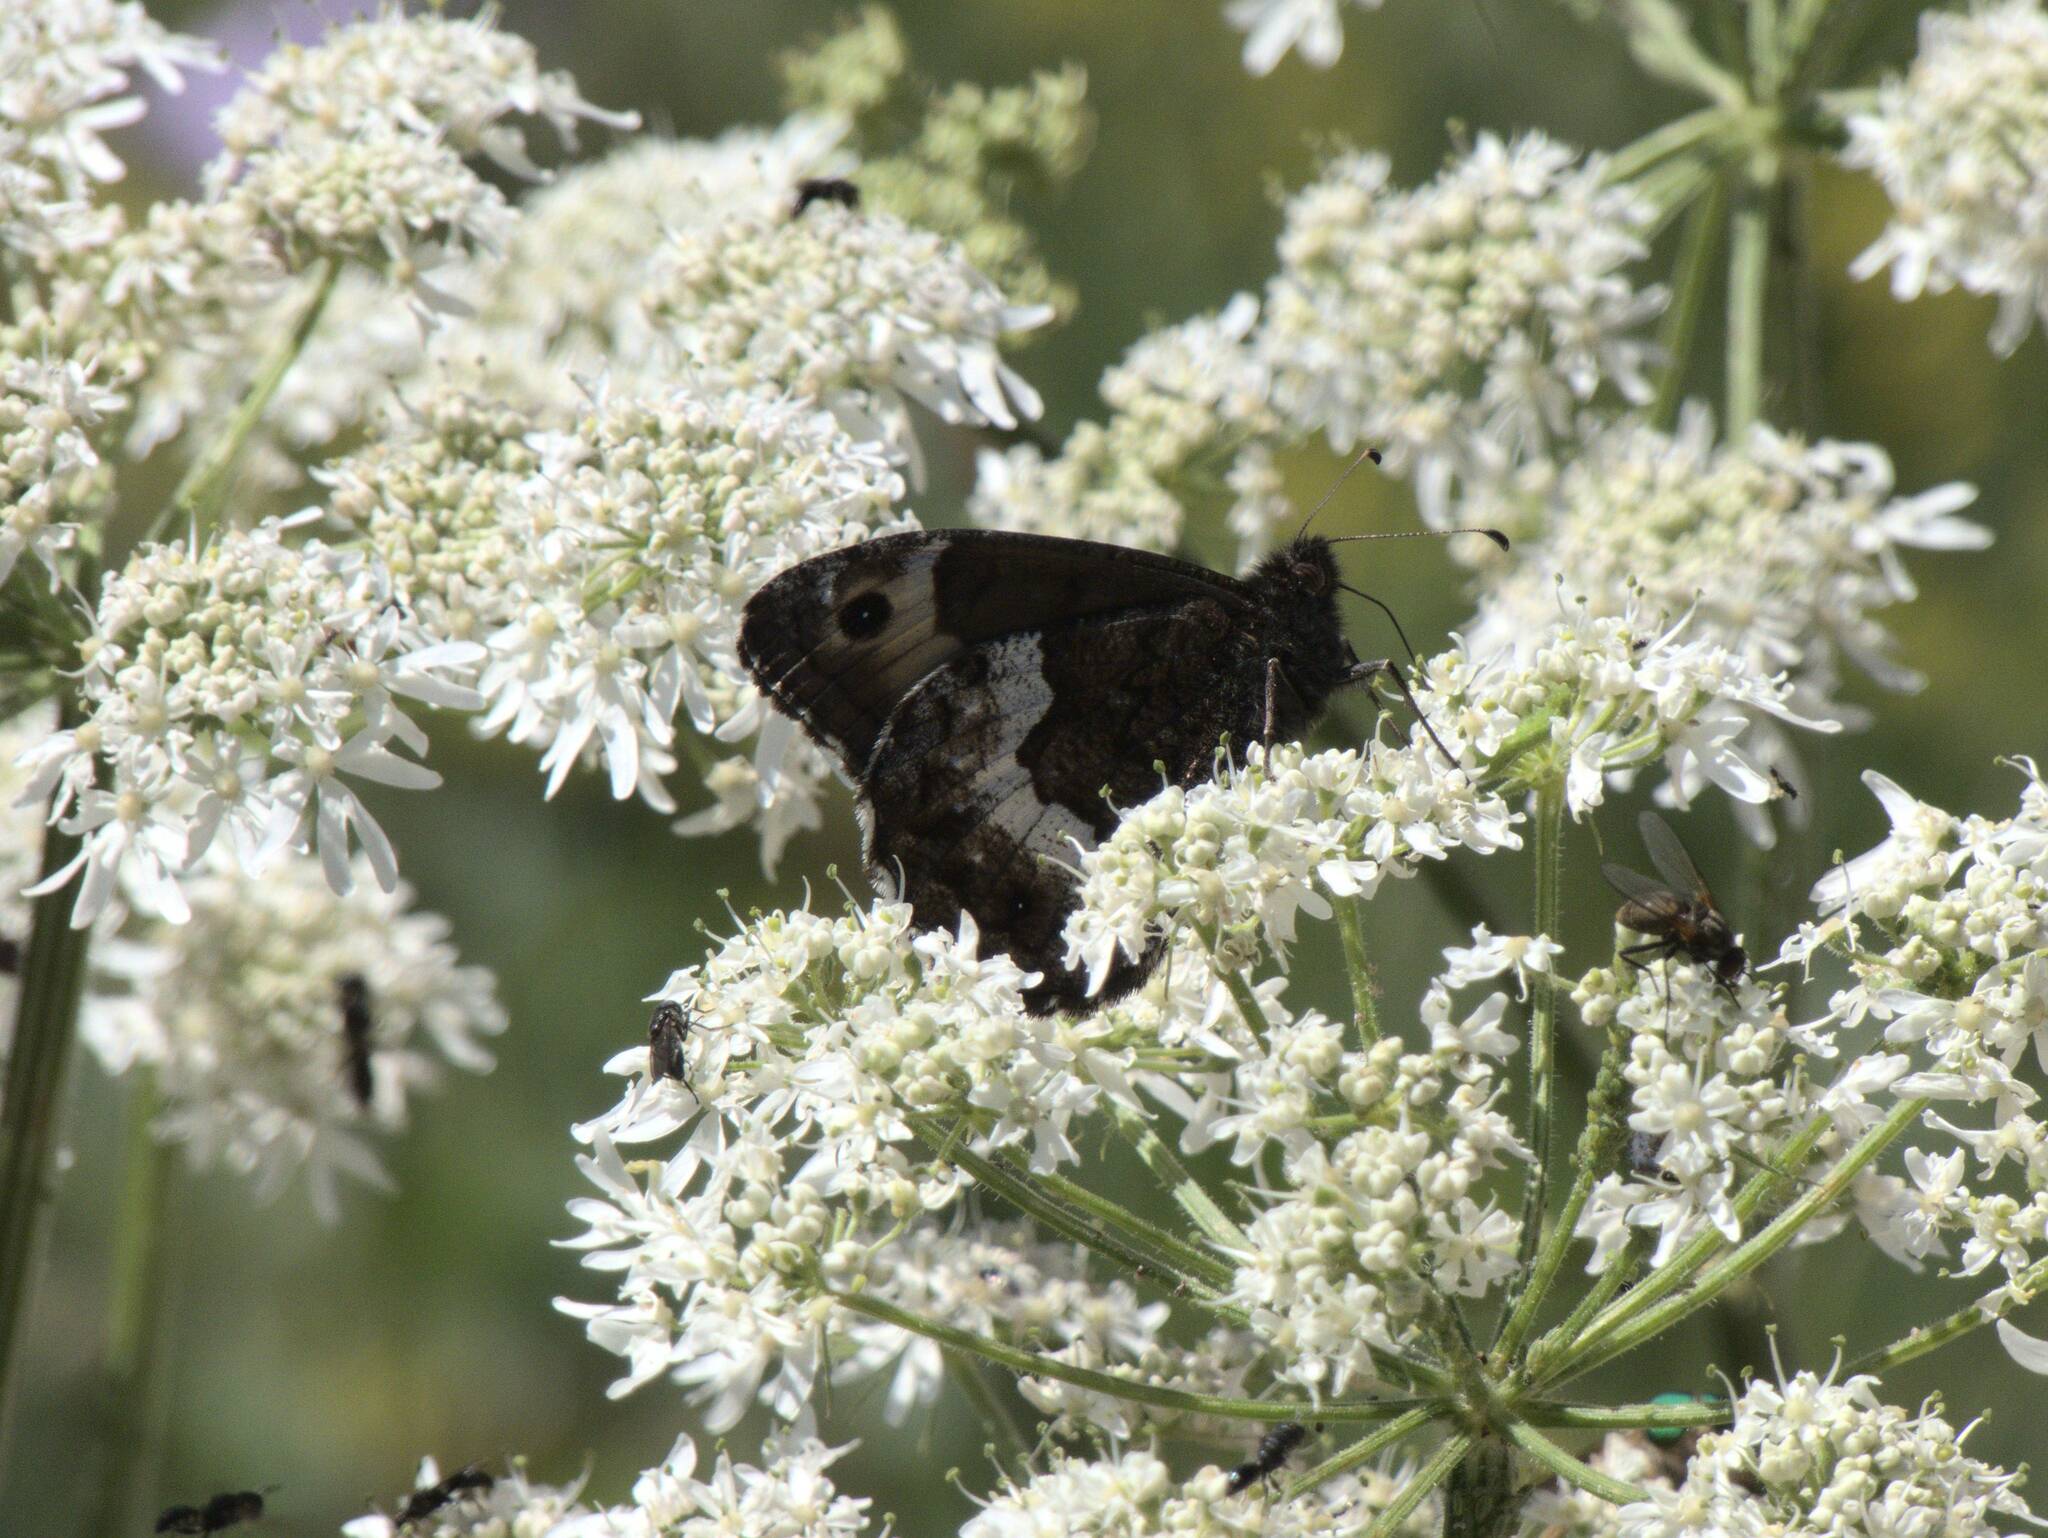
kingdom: Animalia
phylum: Arthropoda
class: Insecta
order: Lepidoptera
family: Nymphalidae
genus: Hipparchia
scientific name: Hipparchia fagi
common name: Woodland grayling
